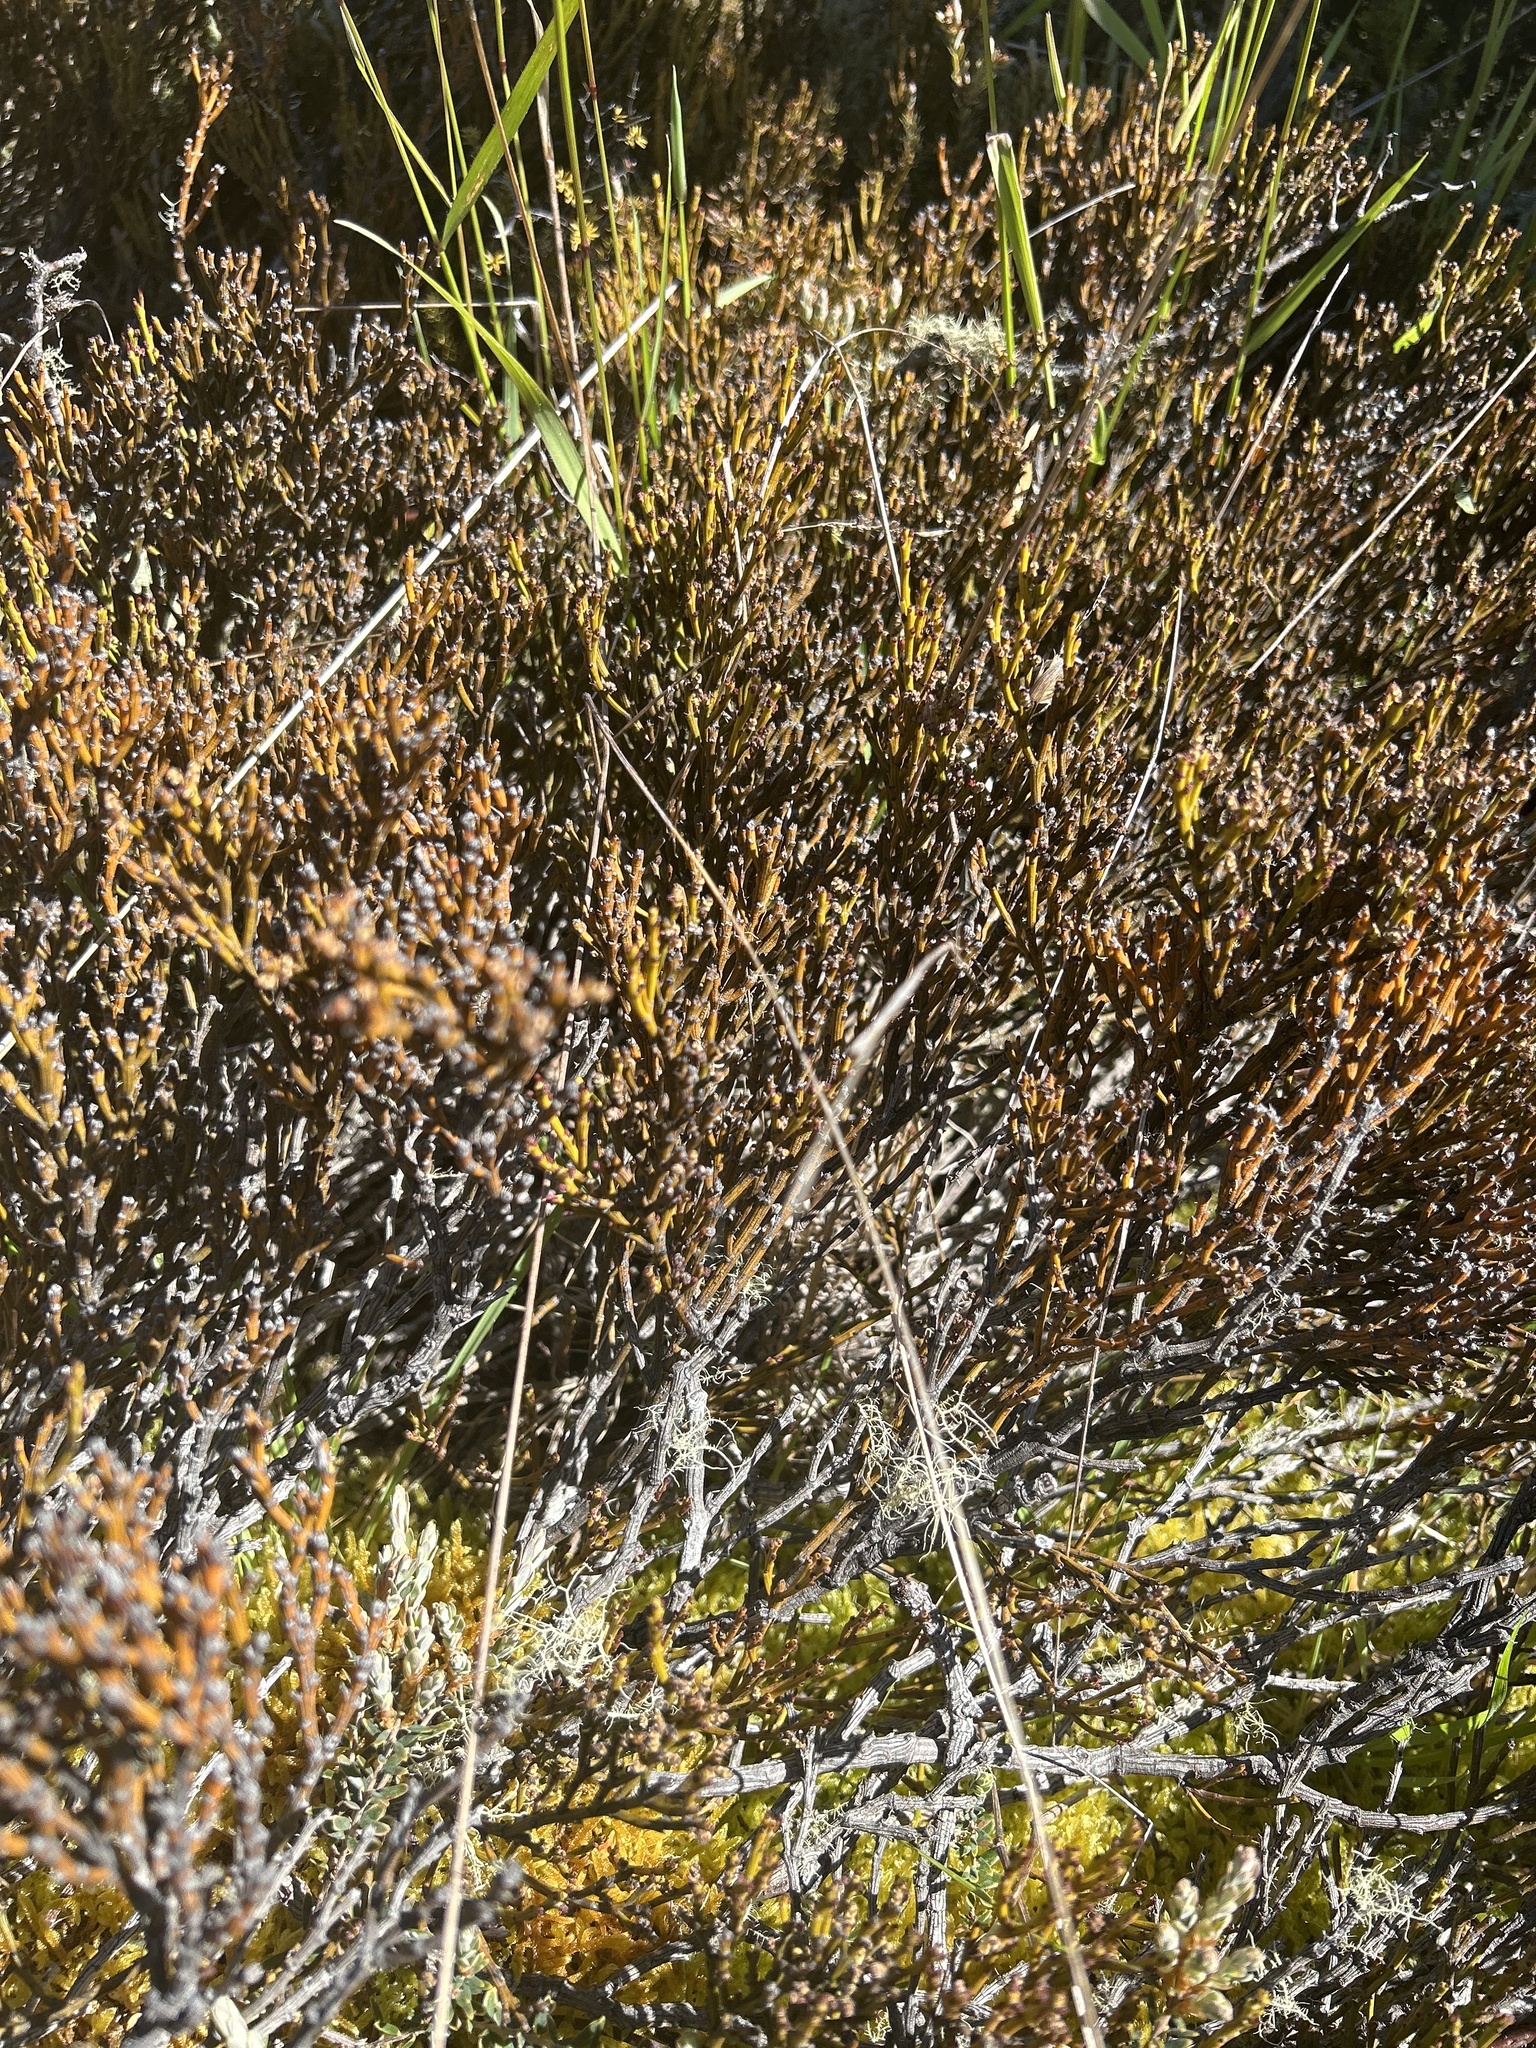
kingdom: Plantae
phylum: Tracheophyta
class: Magnoliopsida
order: Santalales
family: Santalaceae
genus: Exocarpos
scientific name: Exocarpos bidwillii
